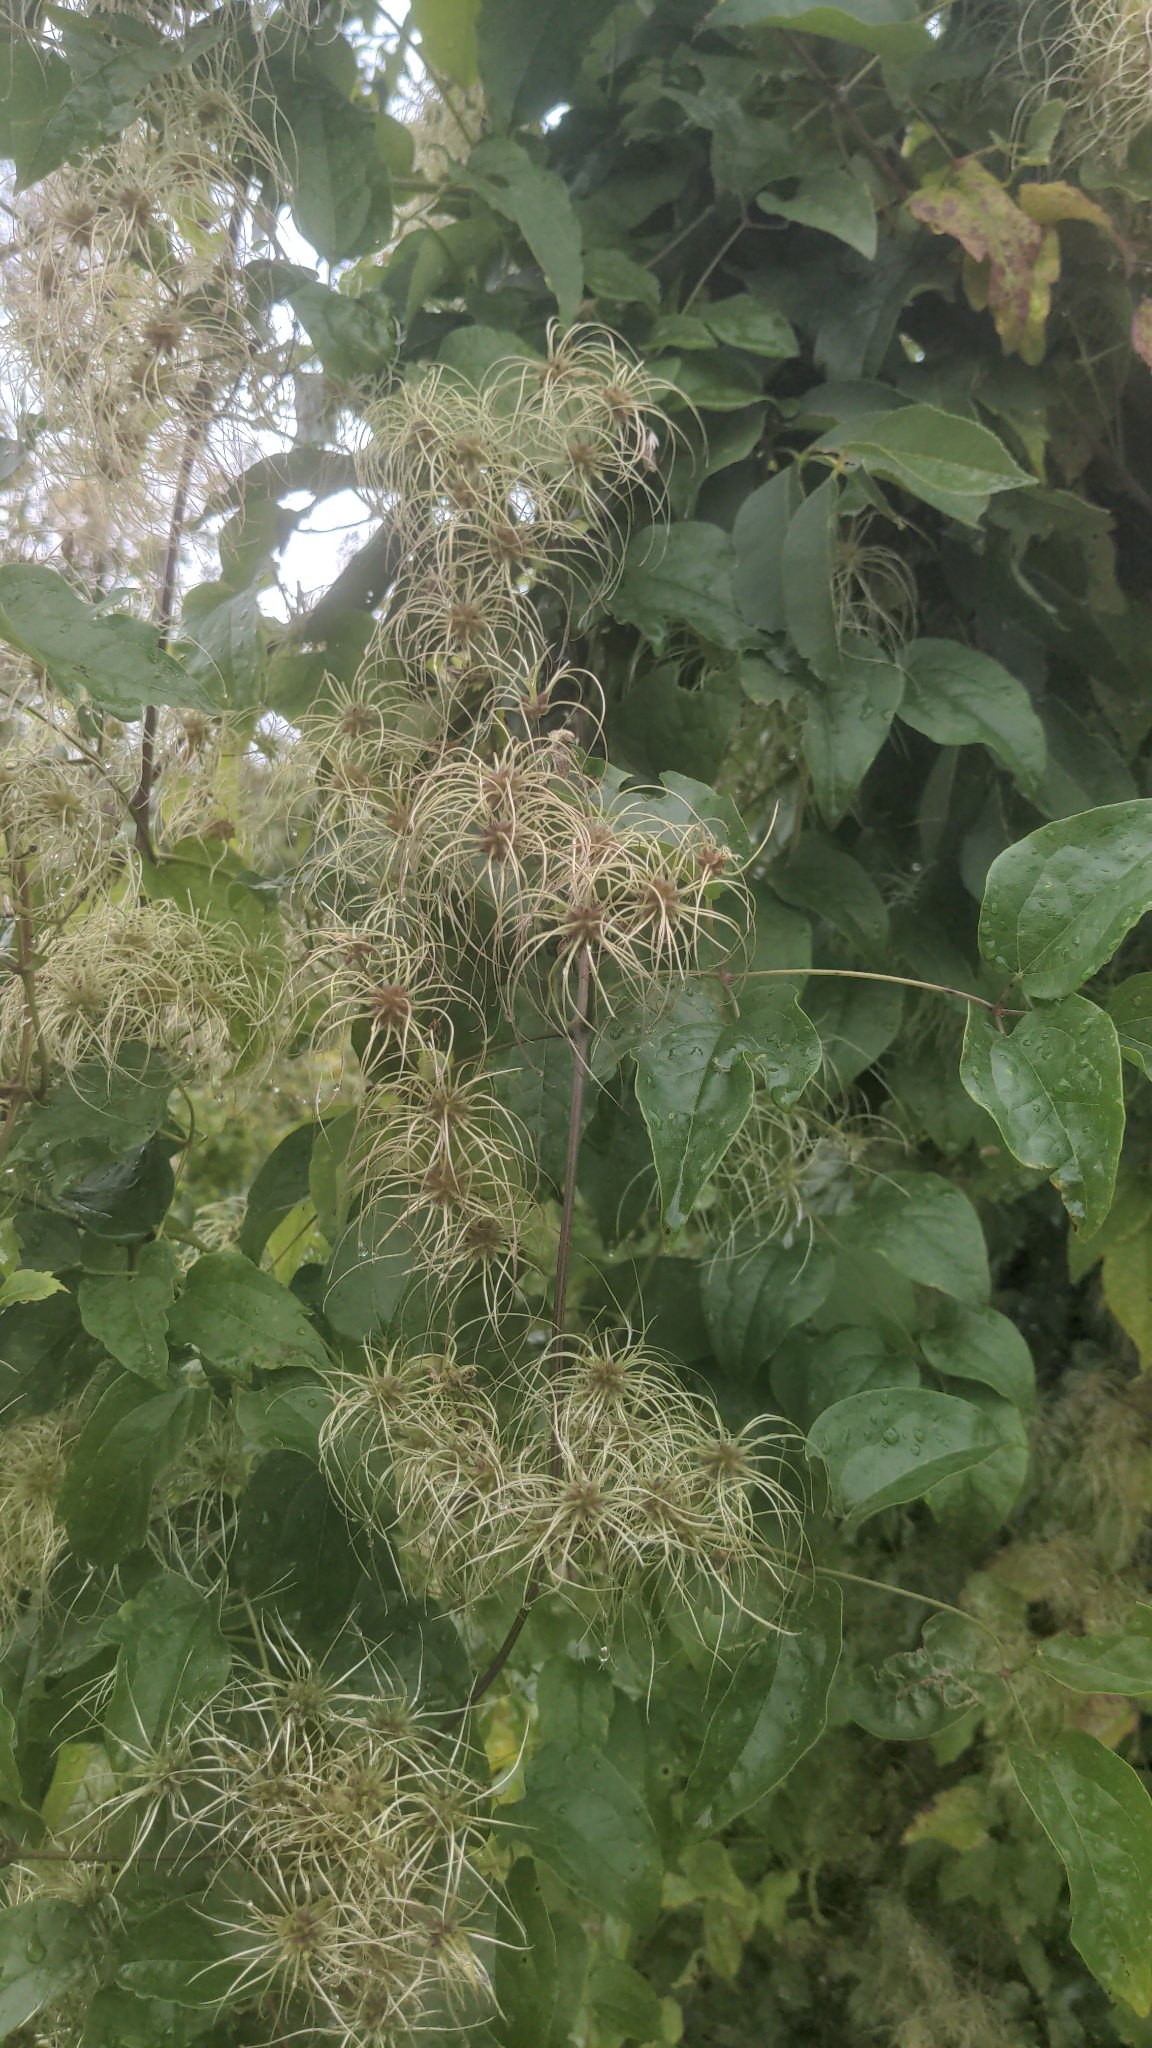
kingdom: Plantae
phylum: Tracheophyta
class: Magnoliopsida
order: Ranunculales
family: Ranunculaceae
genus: Clematis
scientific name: Clematis vitalba
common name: Evergreen clematis
